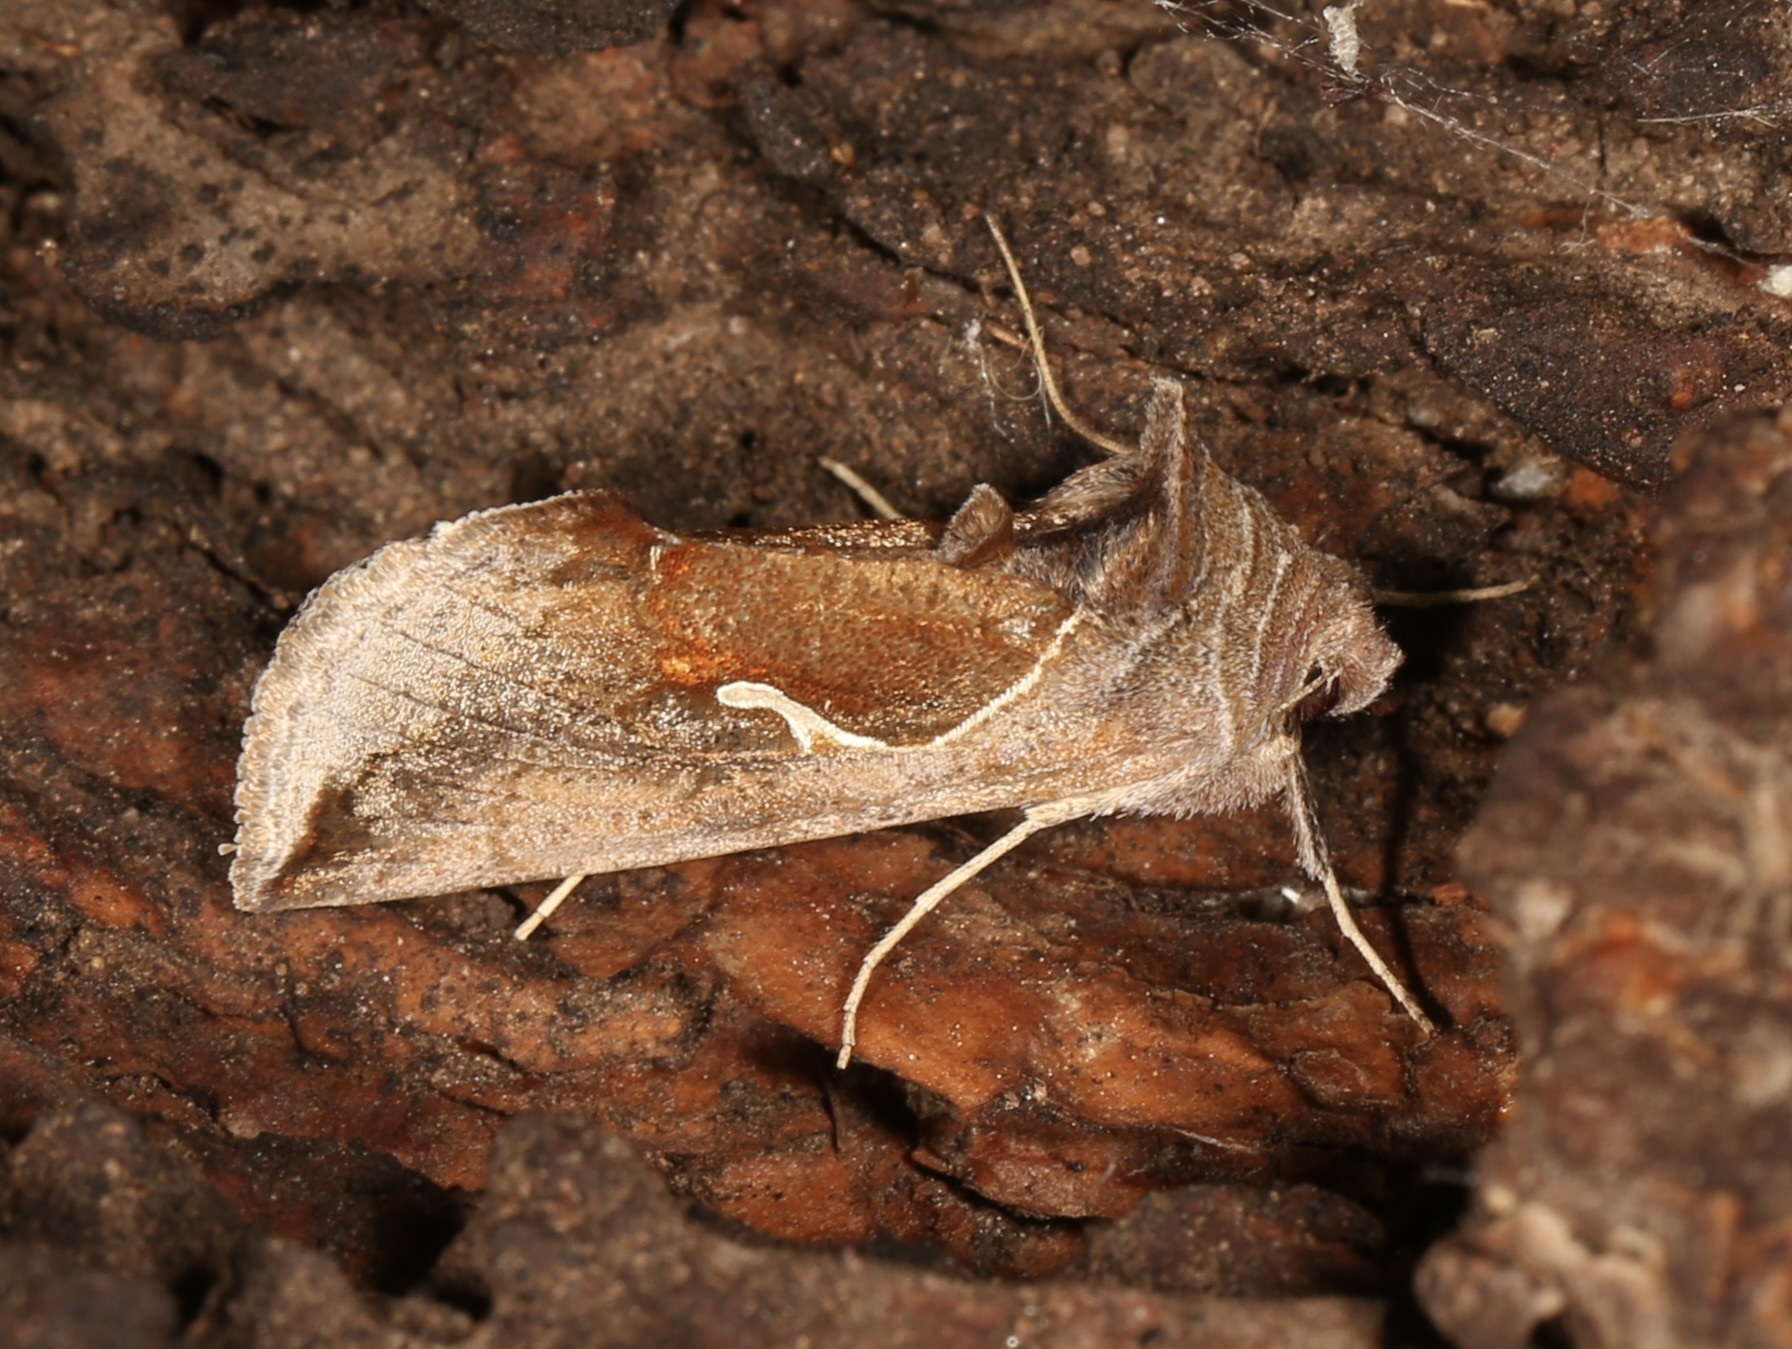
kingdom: Animalia
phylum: Arthropoda
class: Insecta
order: Lepidoptera
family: Noctuidae
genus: Anagrapha
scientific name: Anagrapha falcifera
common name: Celery looper
